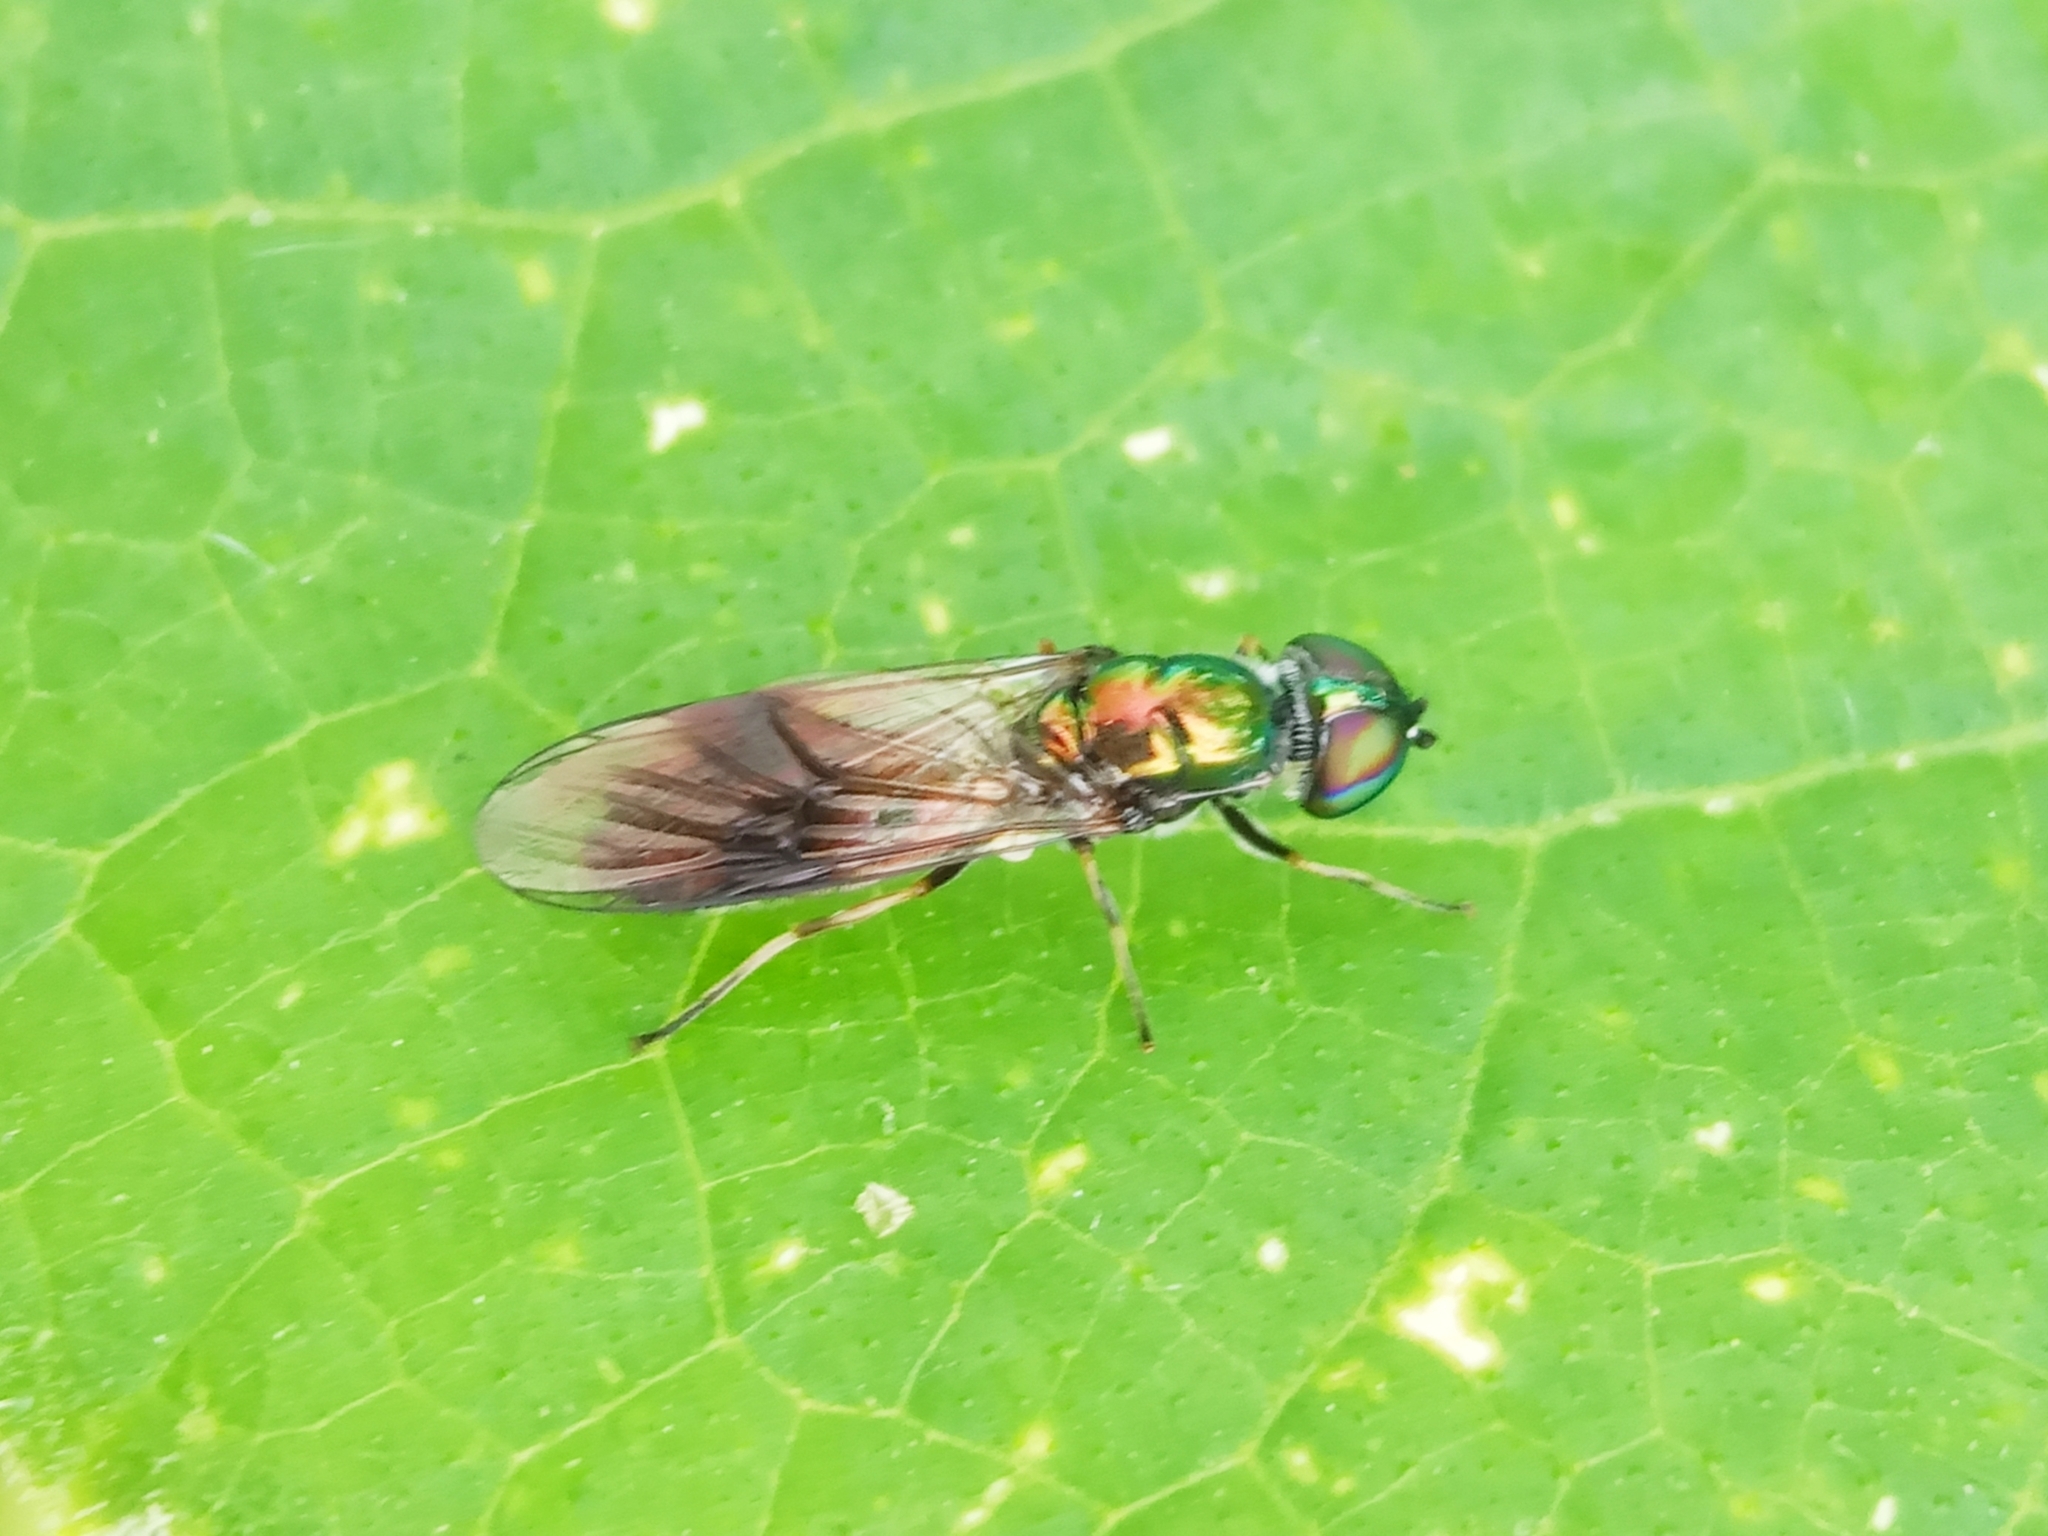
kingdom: Animalia
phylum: Arthropoda
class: Insecta
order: Diptera
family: Stratiomyidae
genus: Sargus
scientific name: Sargus
